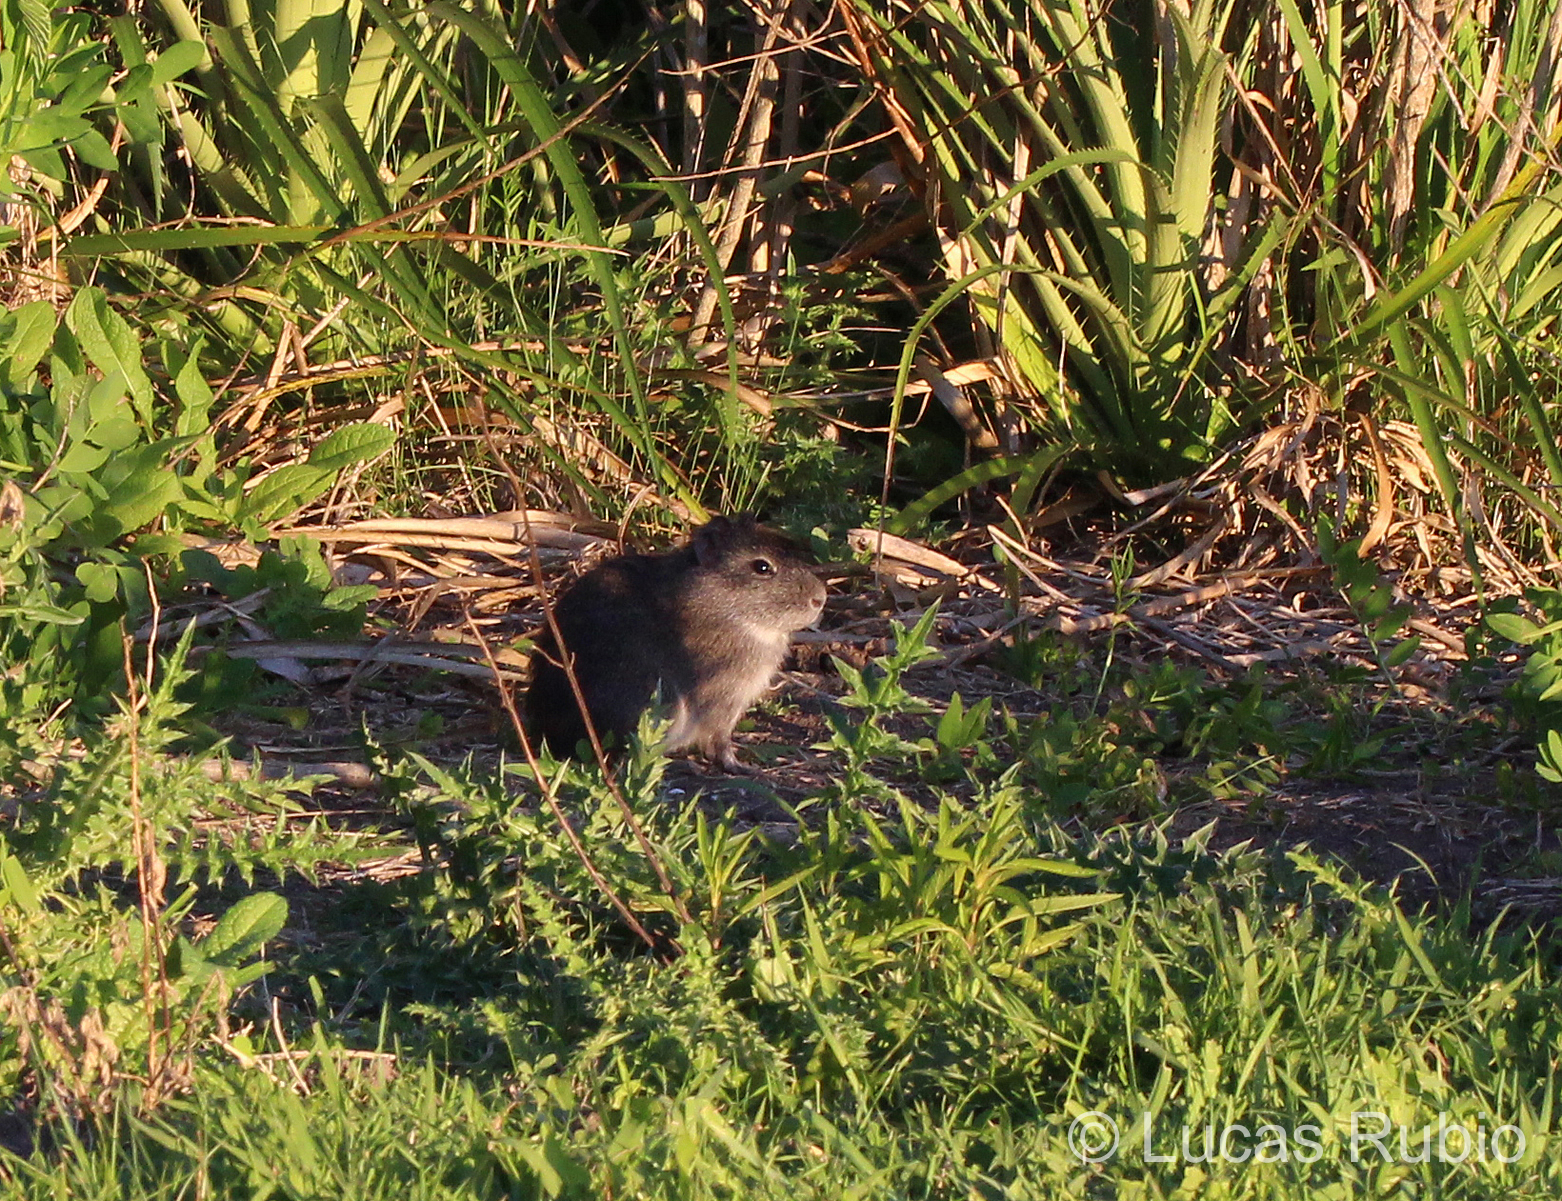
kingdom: Animalia
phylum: Chordata
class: Mammalia
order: Rodentia
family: Caviidae
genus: Cavia
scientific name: Cavia aperea
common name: Brazilian guinea pig
